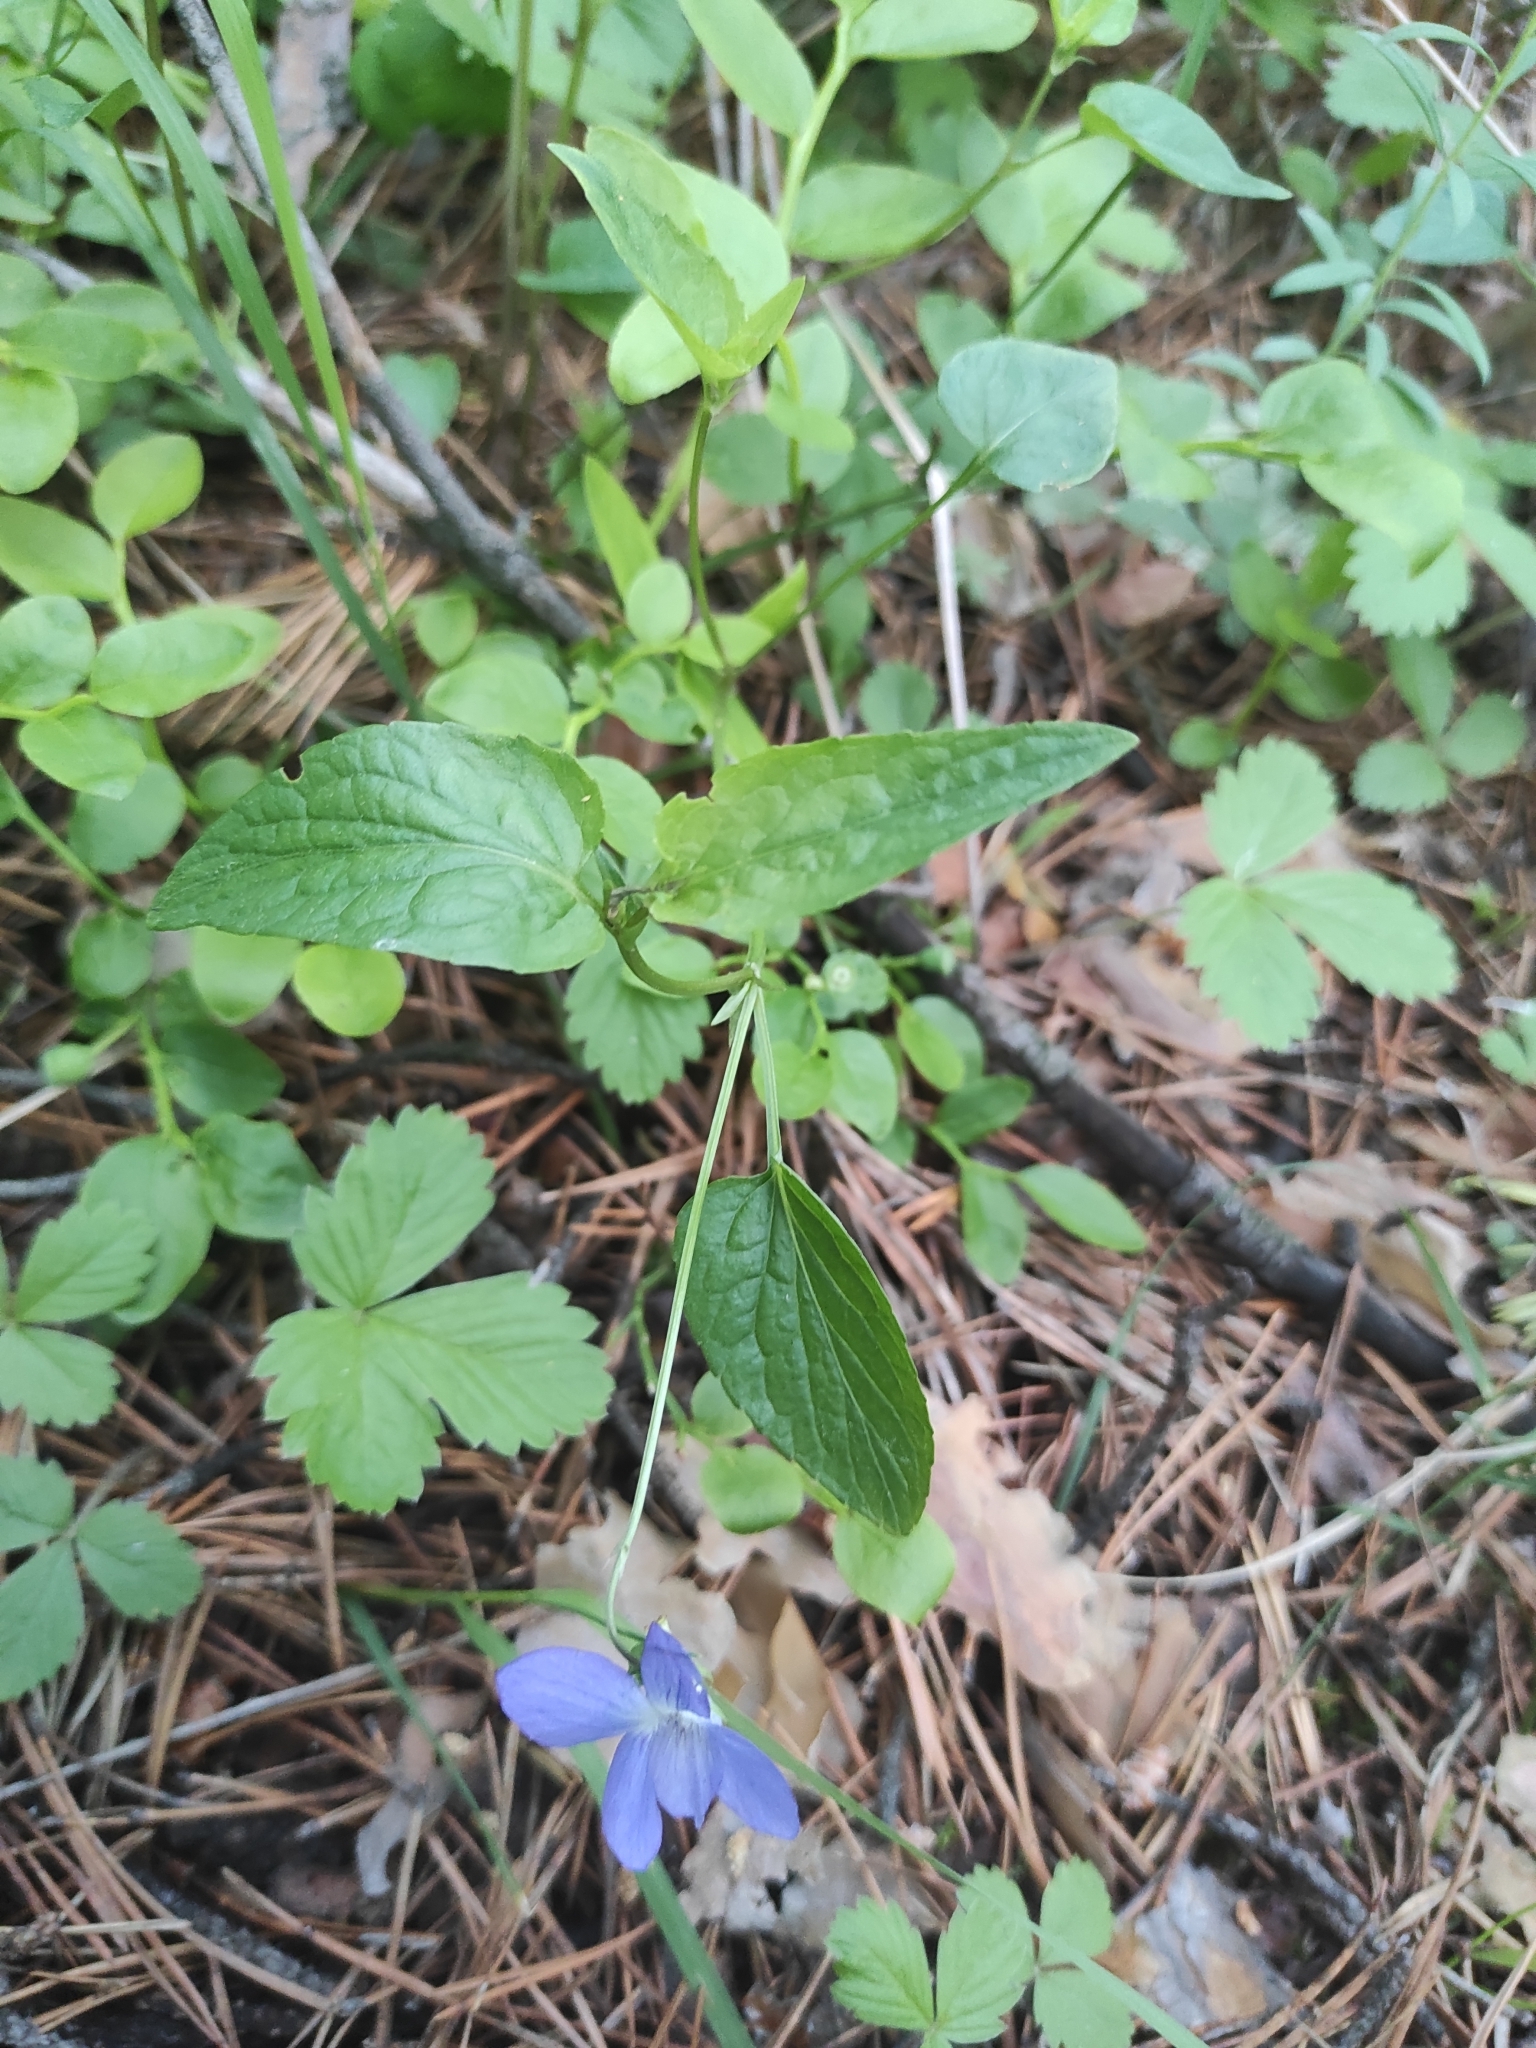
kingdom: Plantae
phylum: Tracheophyta
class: Magnoliopsida
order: Malpighiales
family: Violaceae
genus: Viola
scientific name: Viola
